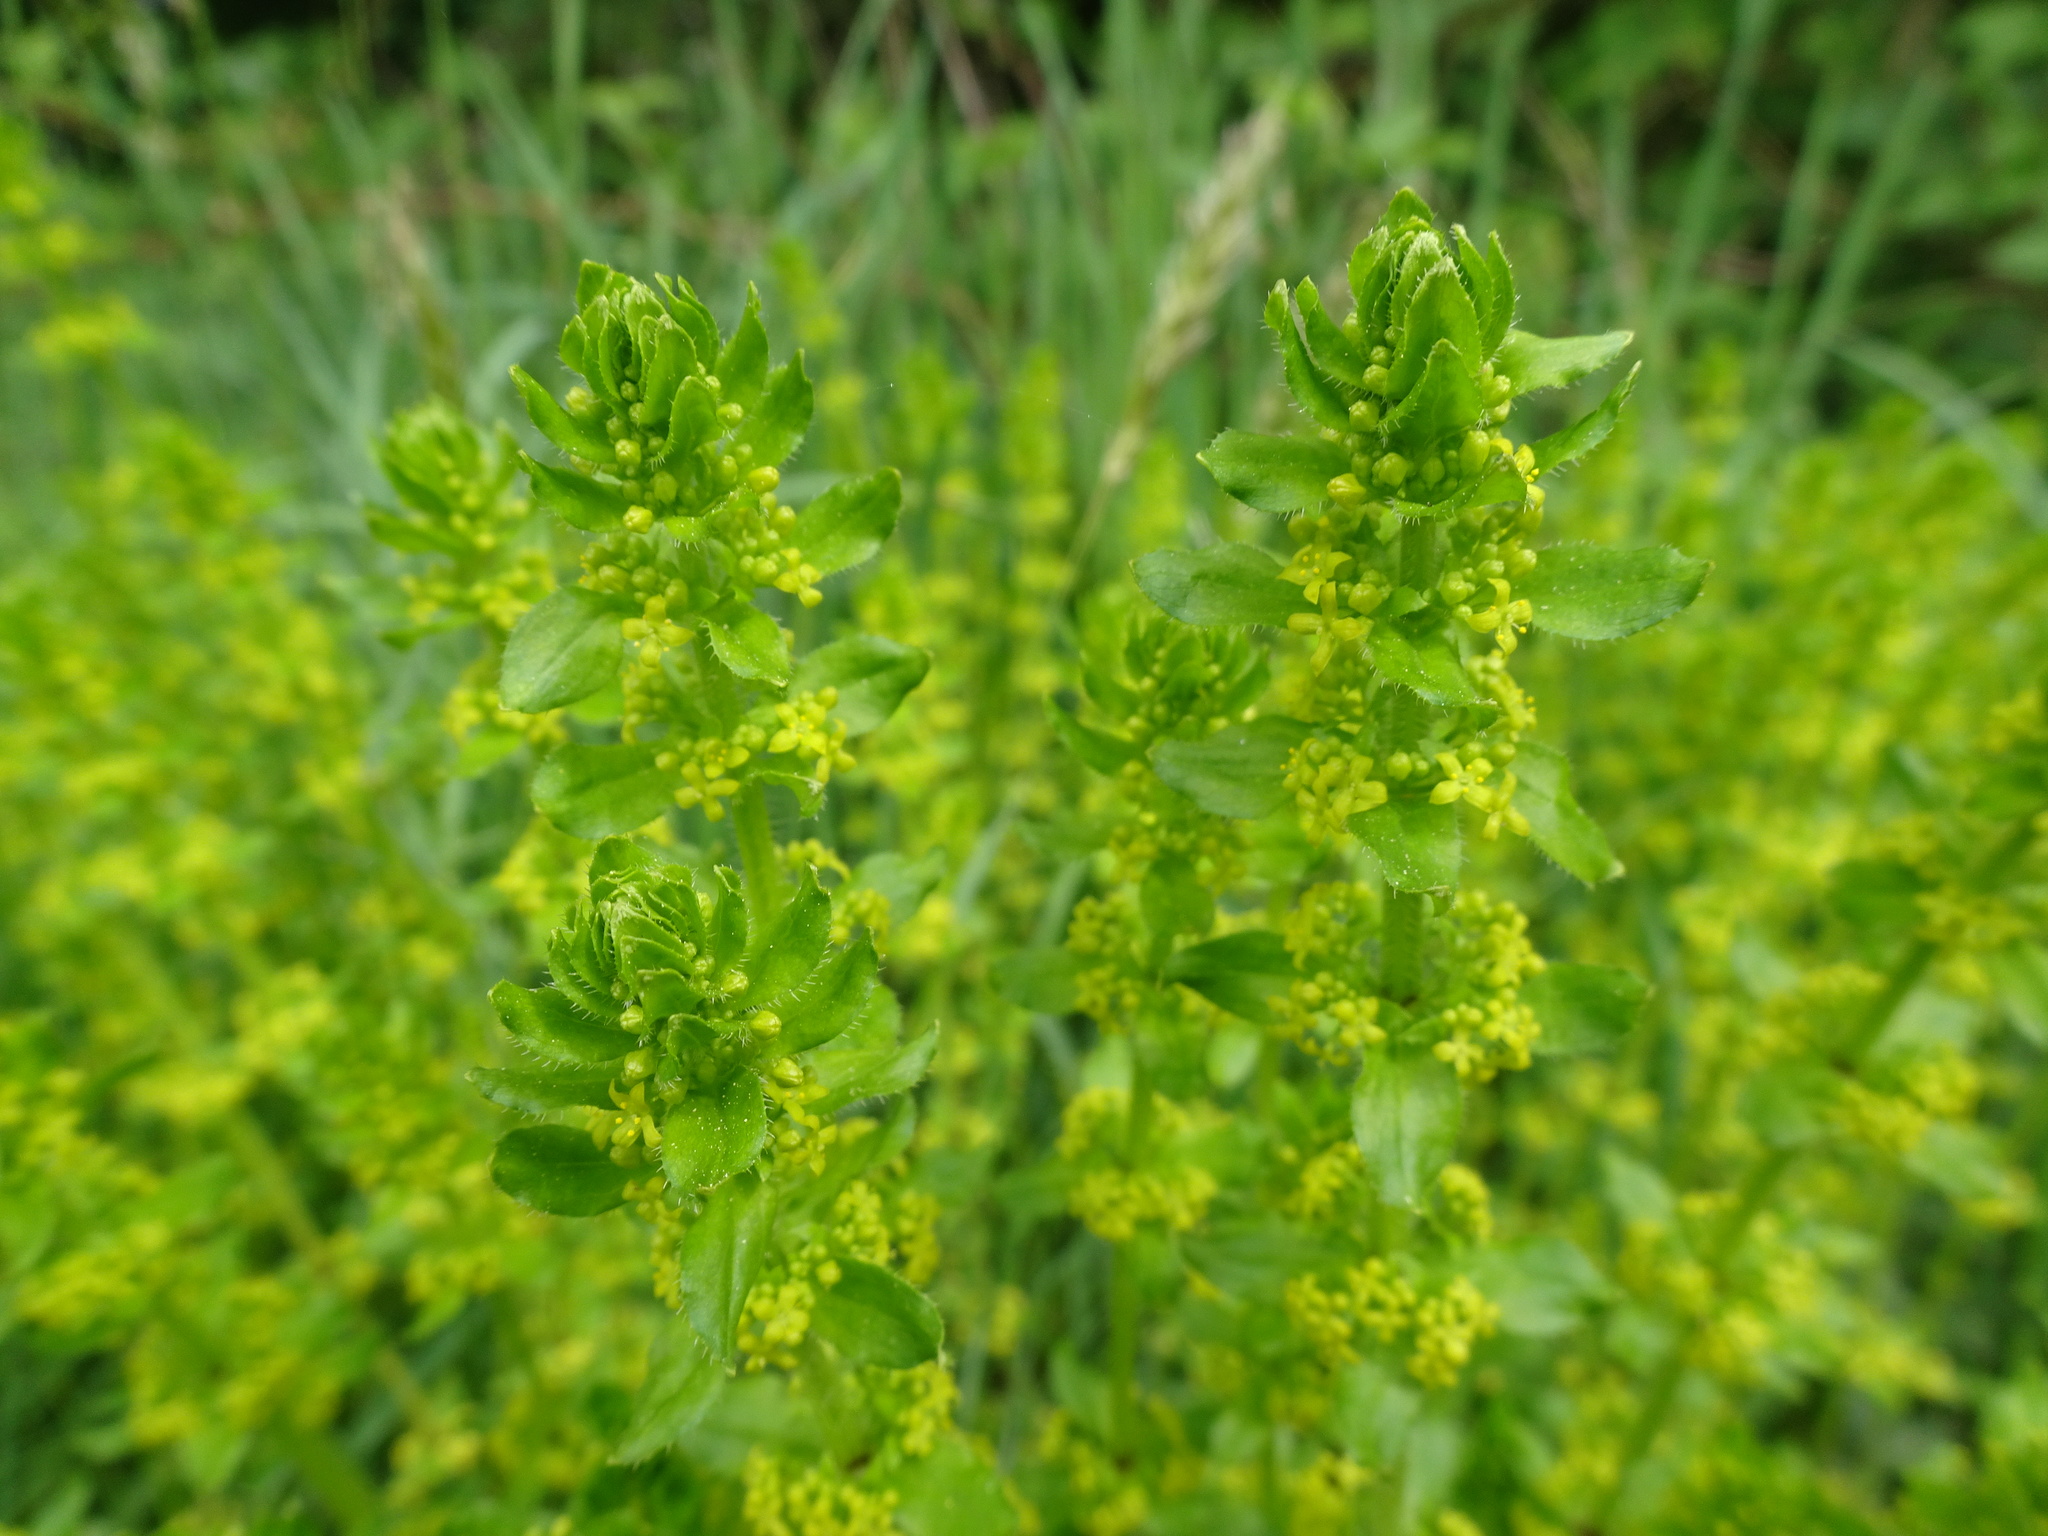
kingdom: Plantae
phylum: Tracheophyta
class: Magnoliopsida
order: Gentianales
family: Rubiaceae
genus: Cruciata
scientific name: Cruciata laevipes
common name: Crosswort
